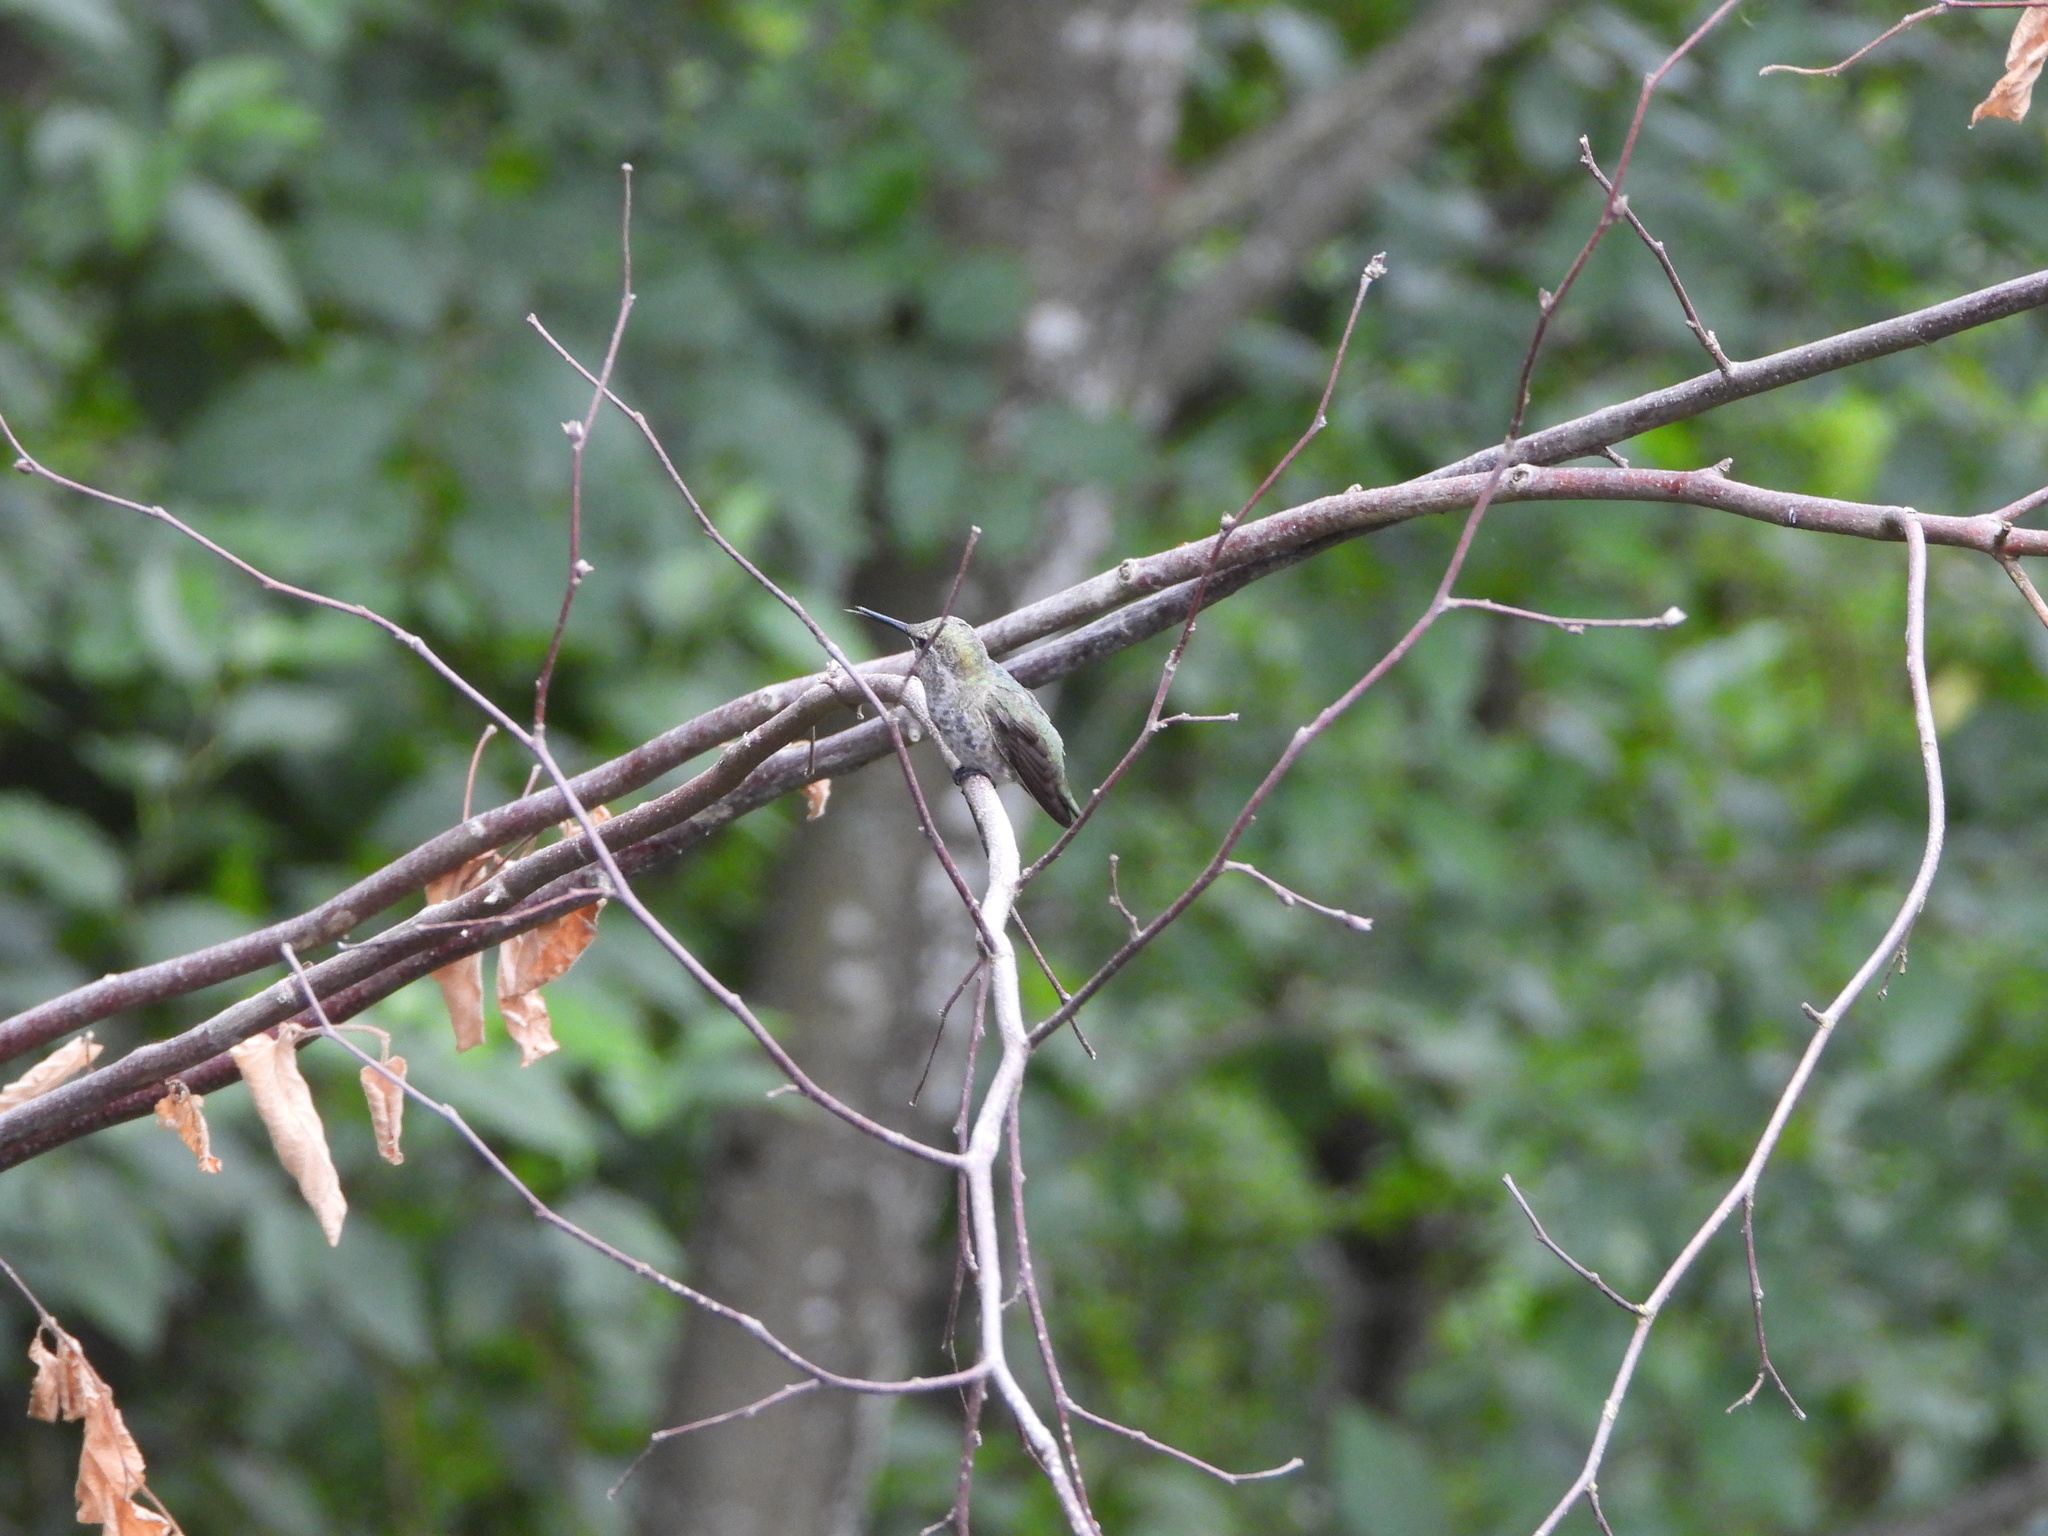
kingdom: Animalia
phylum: Chordata
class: Aves
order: Apodiformes
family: Trochilidae
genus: Calypte
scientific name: Calypte anna
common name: Anna's hummingbird
